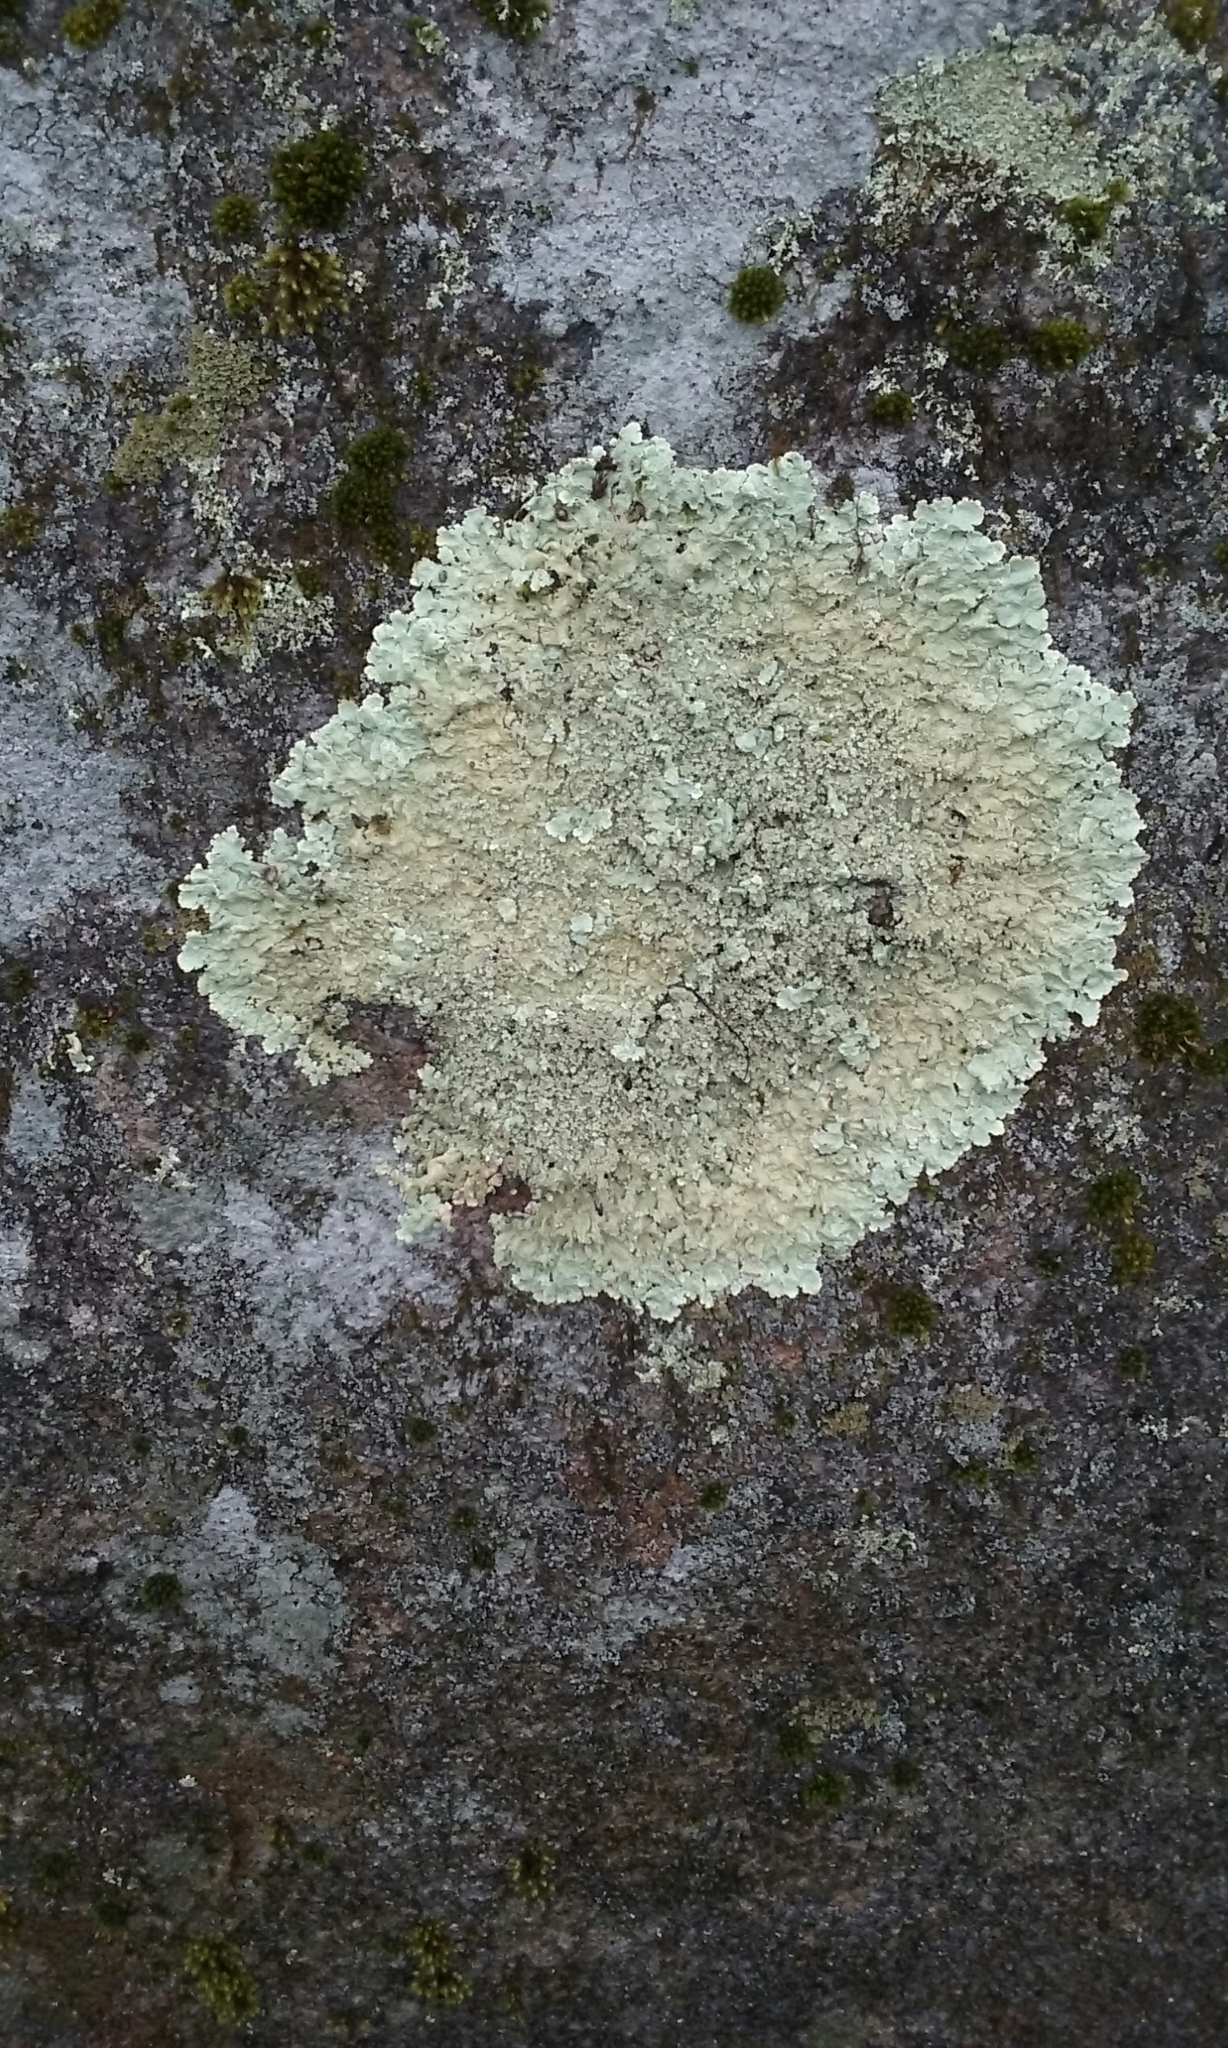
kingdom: Fungi
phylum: Ascomycota
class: Lecanoromycetes
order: Lecanorales
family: Parmeliaceae
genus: Flavoparmelia
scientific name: Flavoparmelia caperata
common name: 40-mile per hour lichen
